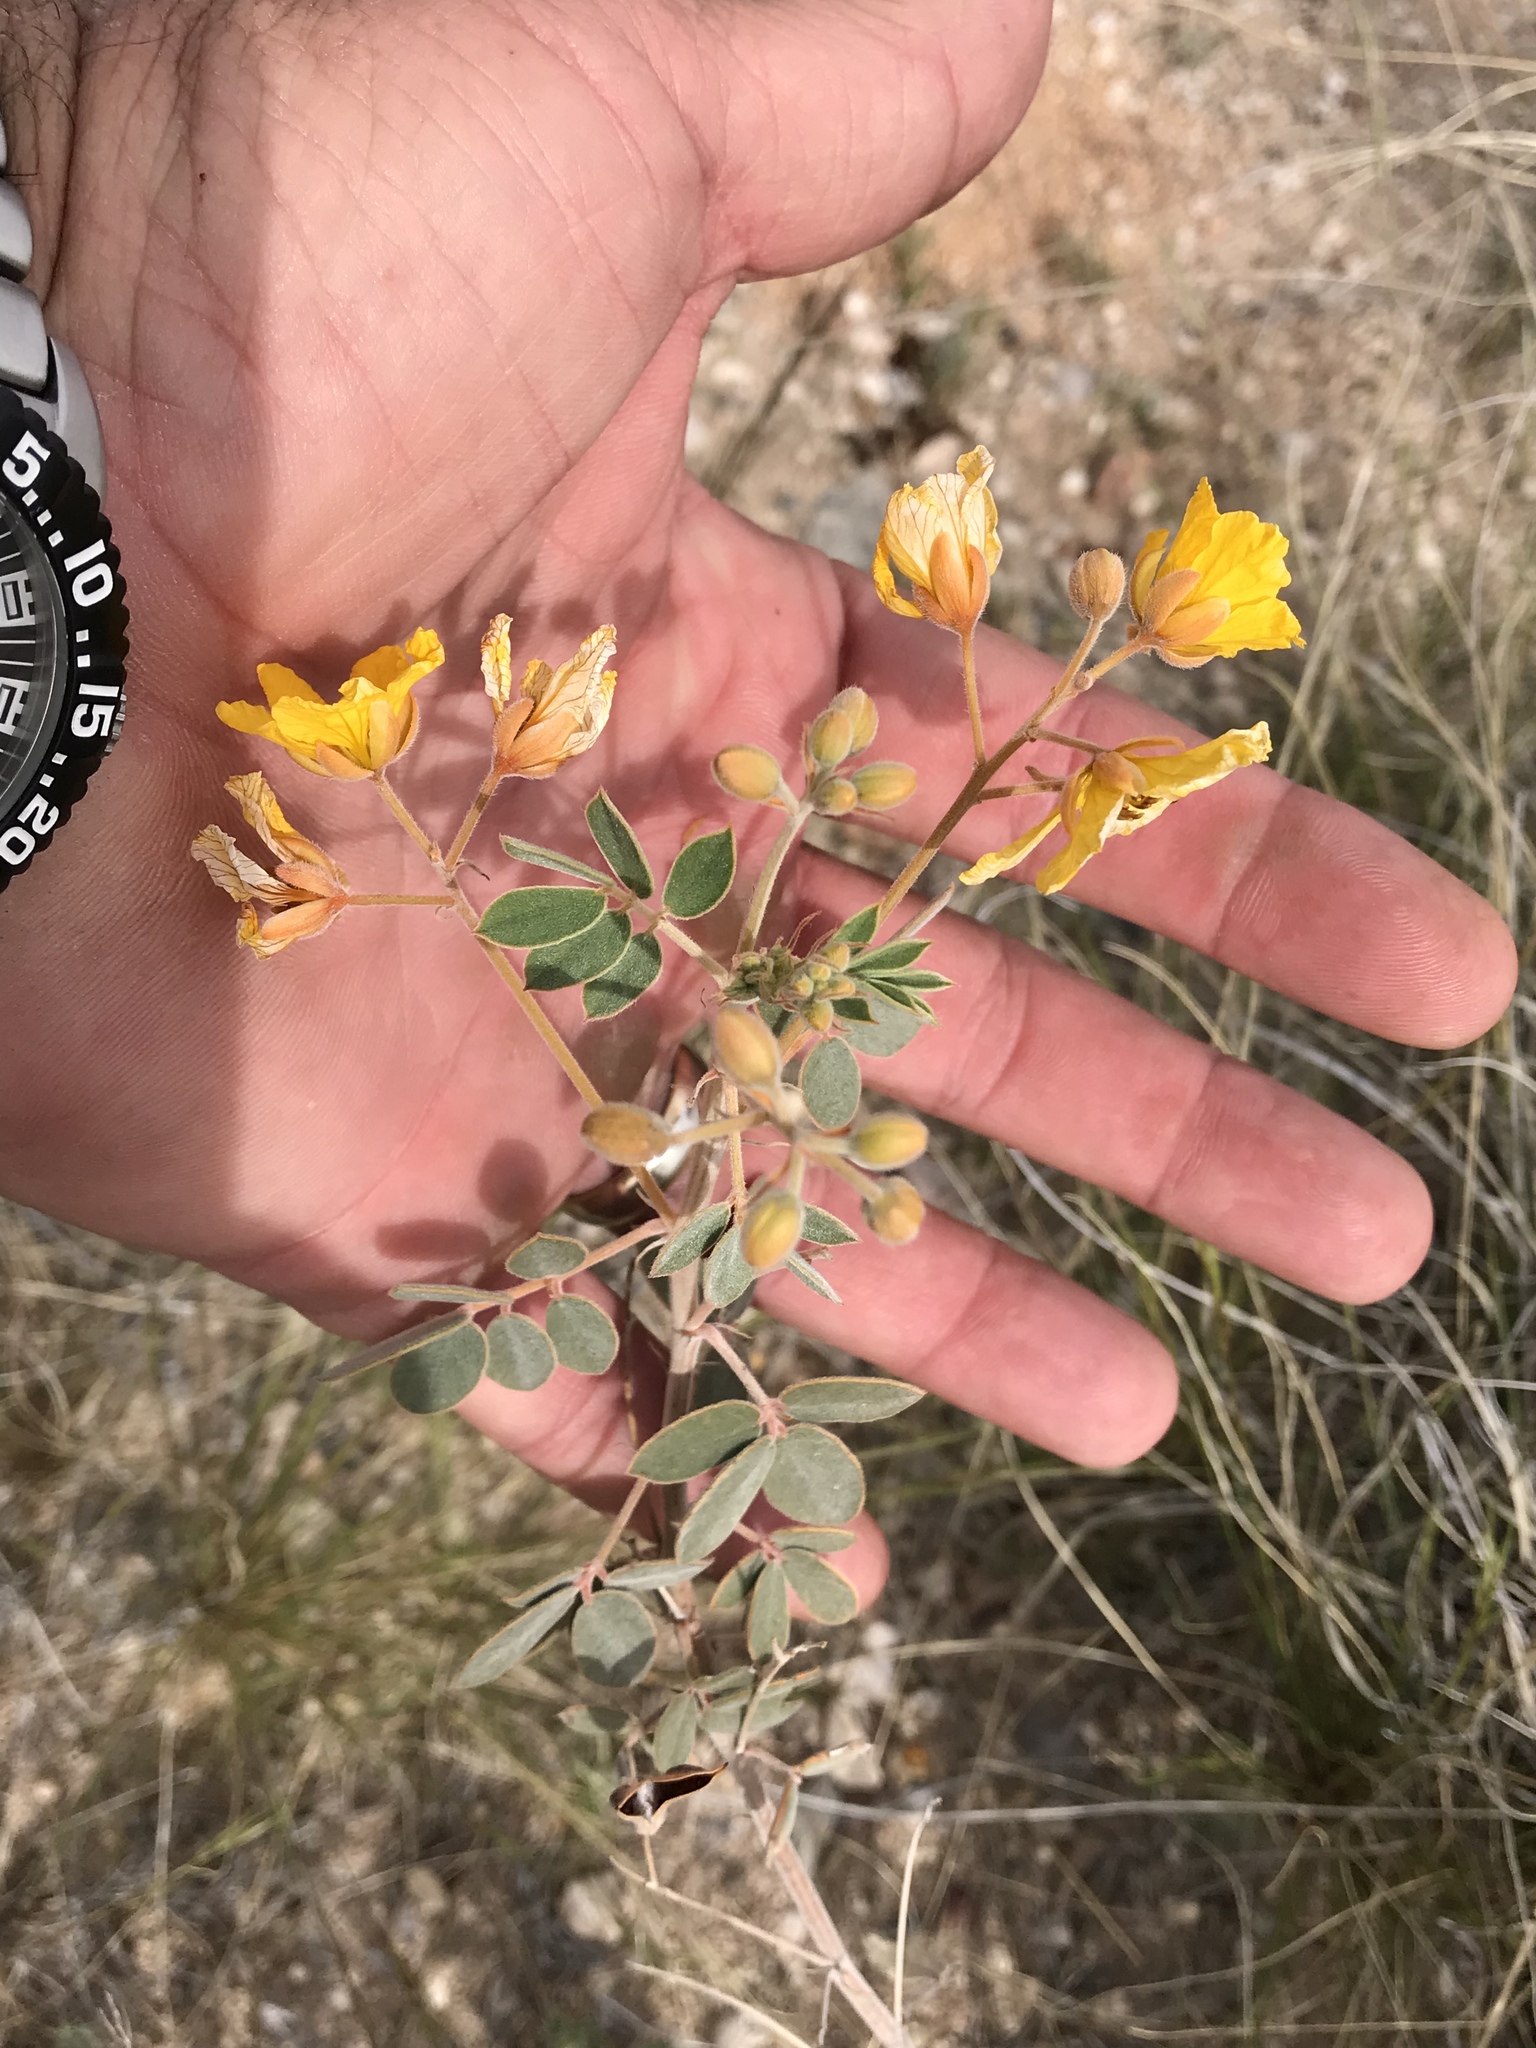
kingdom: Plantae
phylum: Tracheophyta
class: Magnoliopsida
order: Fabales
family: Fabaceae
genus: Senna
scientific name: Senna covesii
